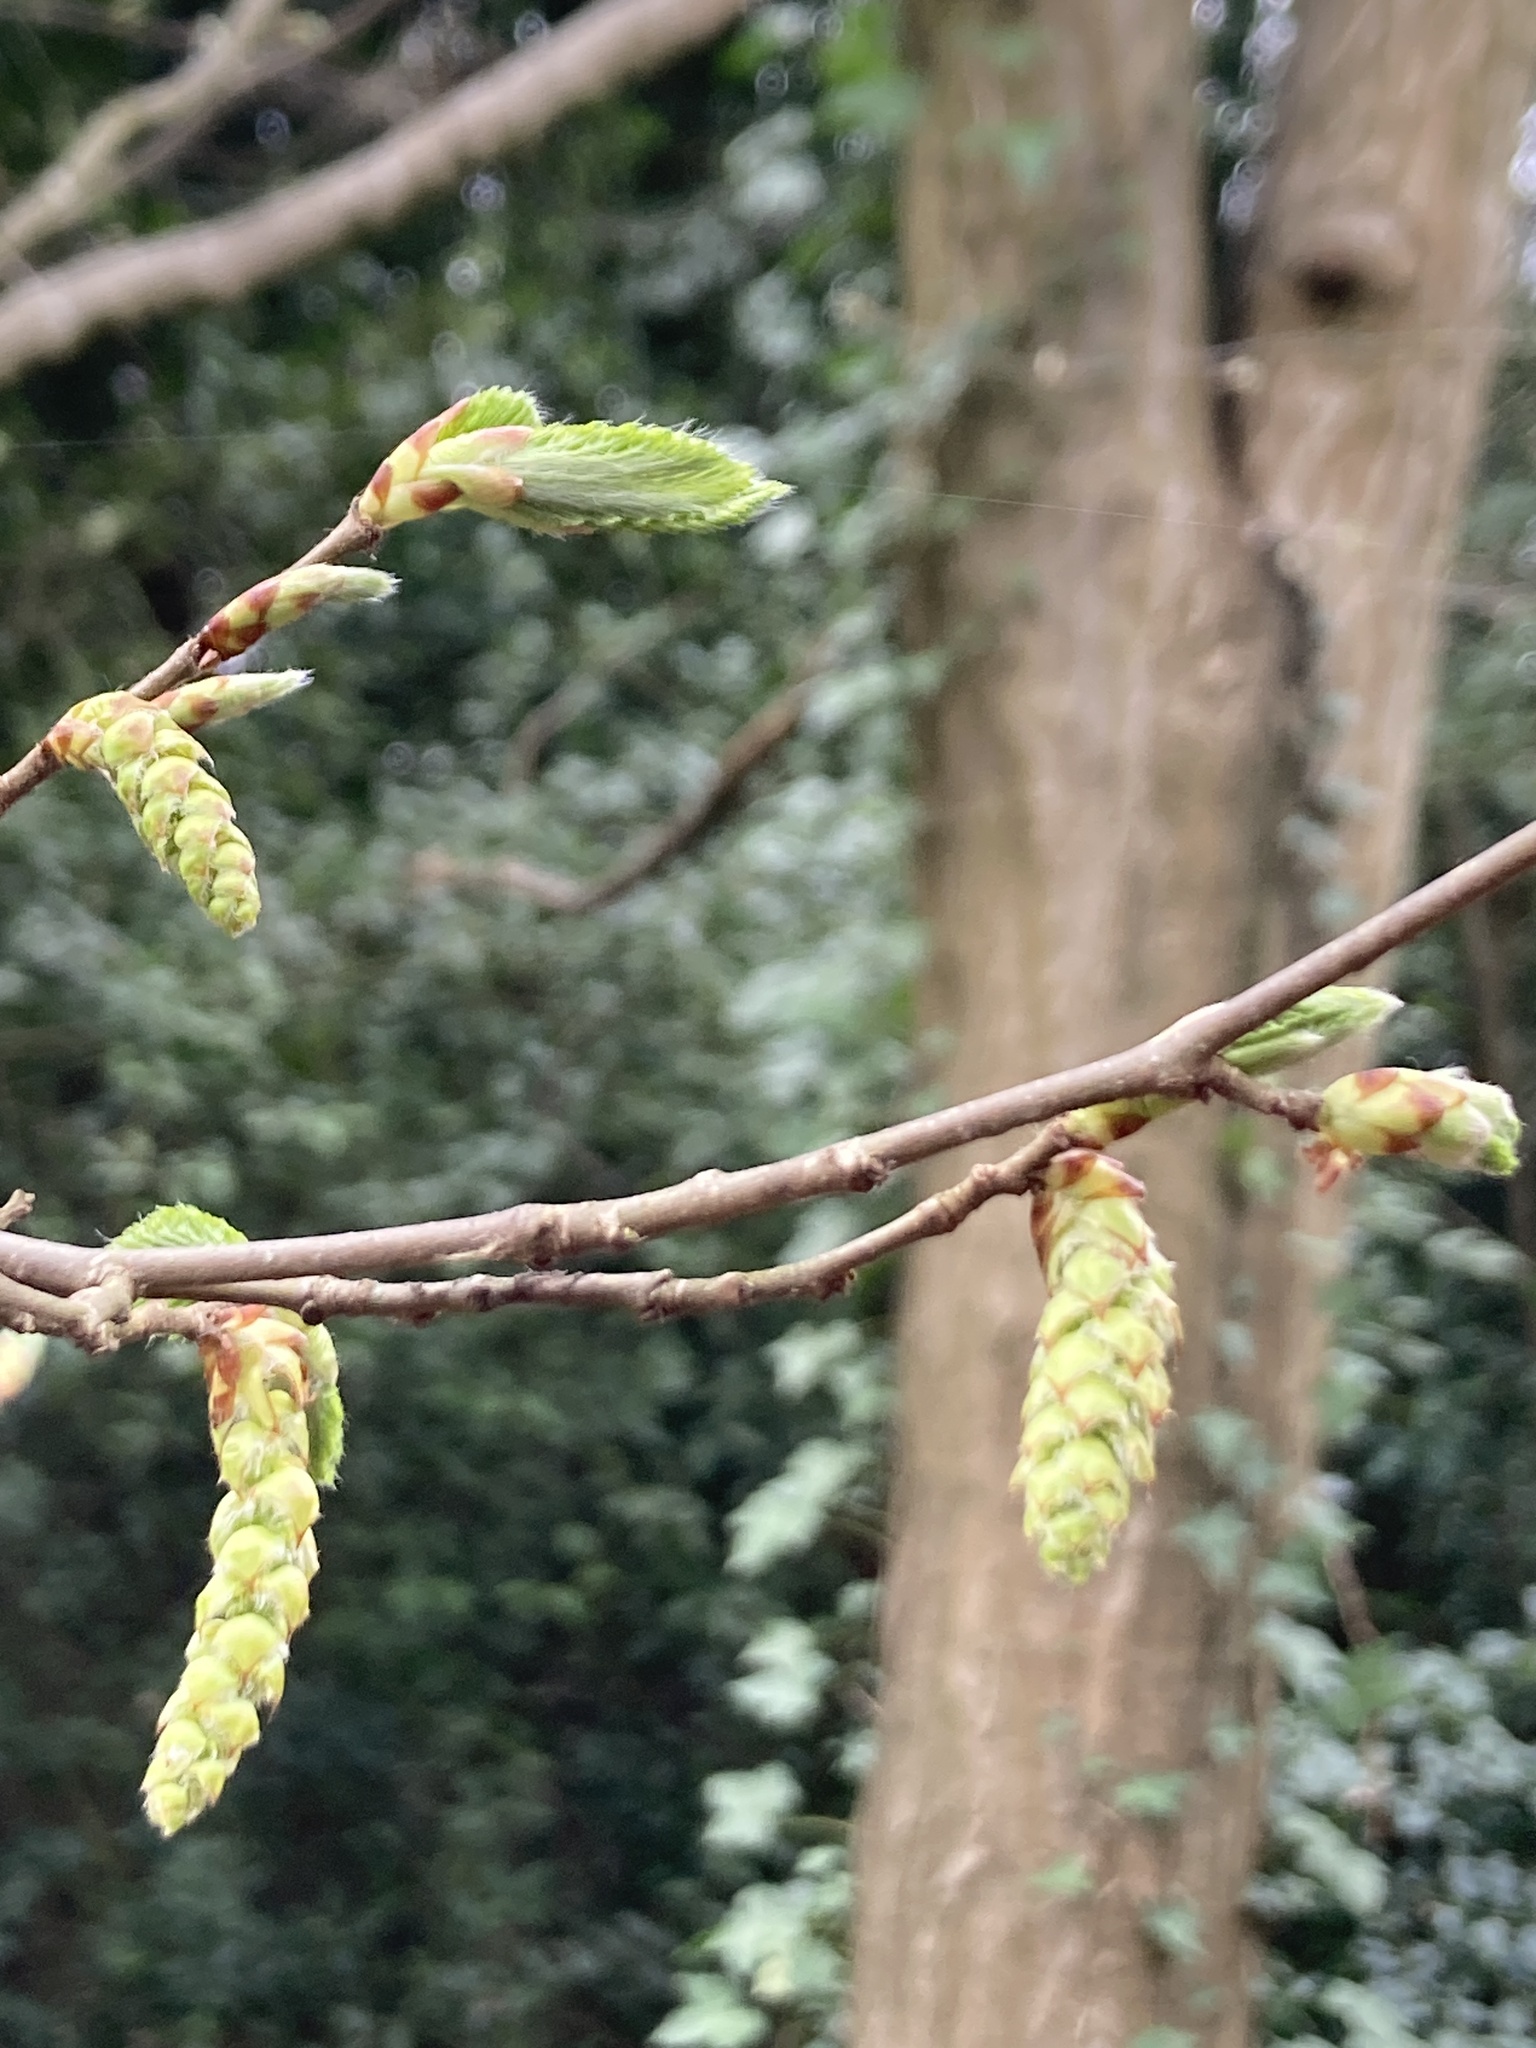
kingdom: Plantae
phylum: Tracheophyta
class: Magnoliopsida
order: Fagales
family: Betulaceae
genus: Carpinus
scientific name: Carpinus betulus
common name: Hornbeam
